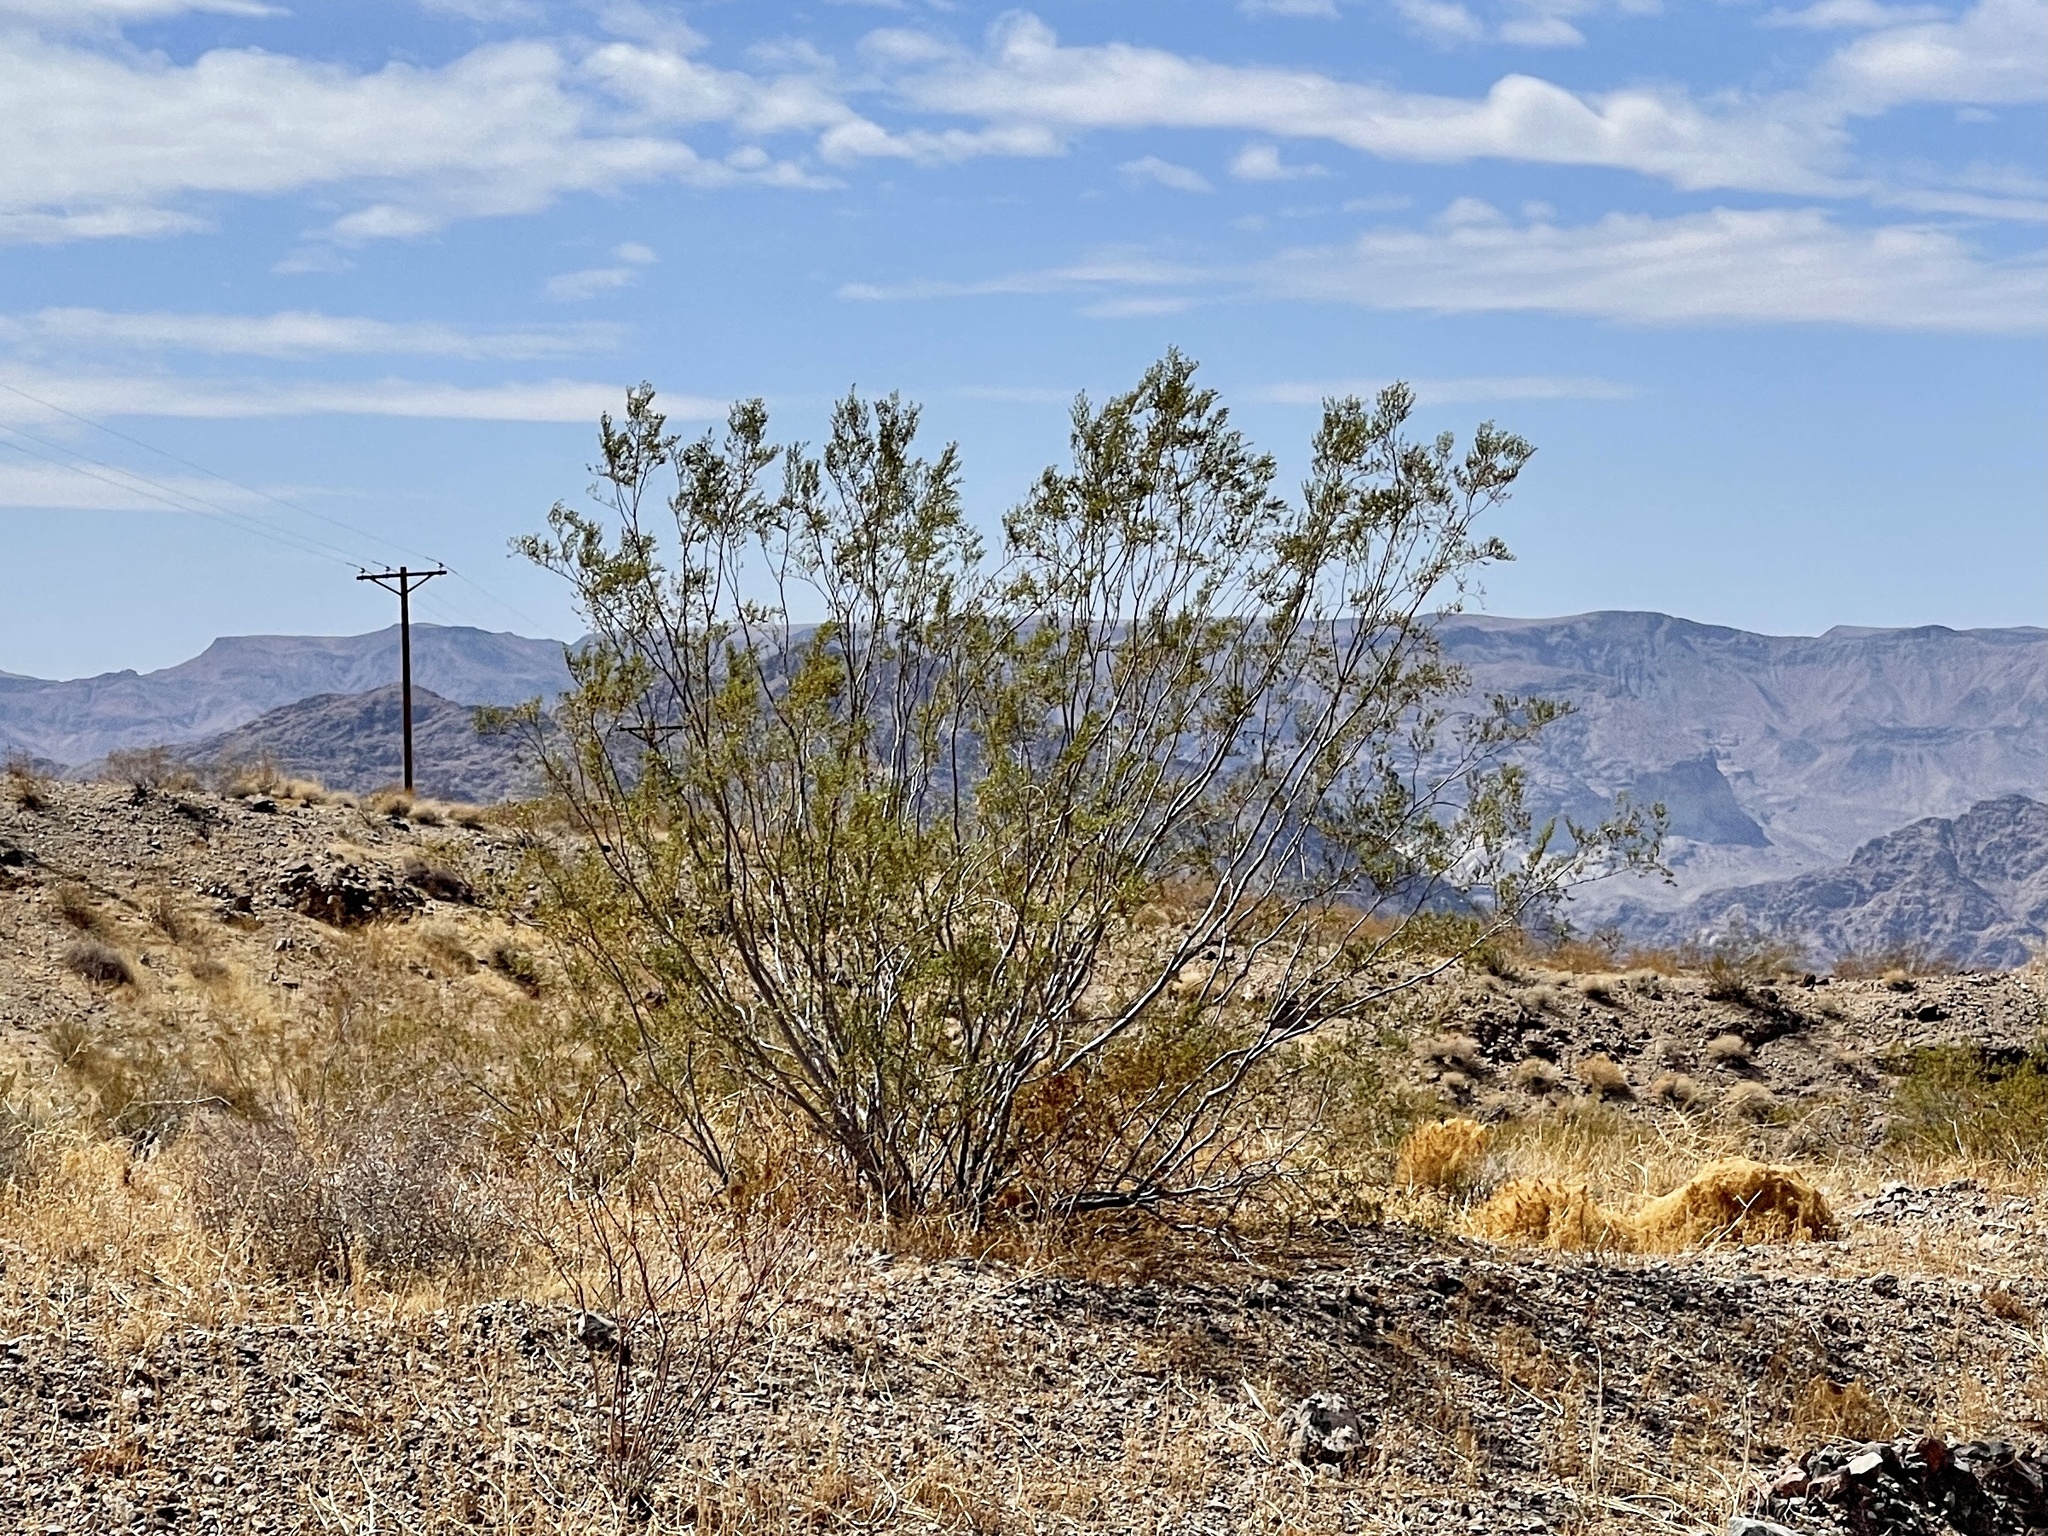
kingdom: Plantae
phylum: Tracheophyta
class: Magnoliopsida
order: Zygophyllales
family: Zygophyllaceae
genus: Larrea
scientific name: Larrea tridentata
